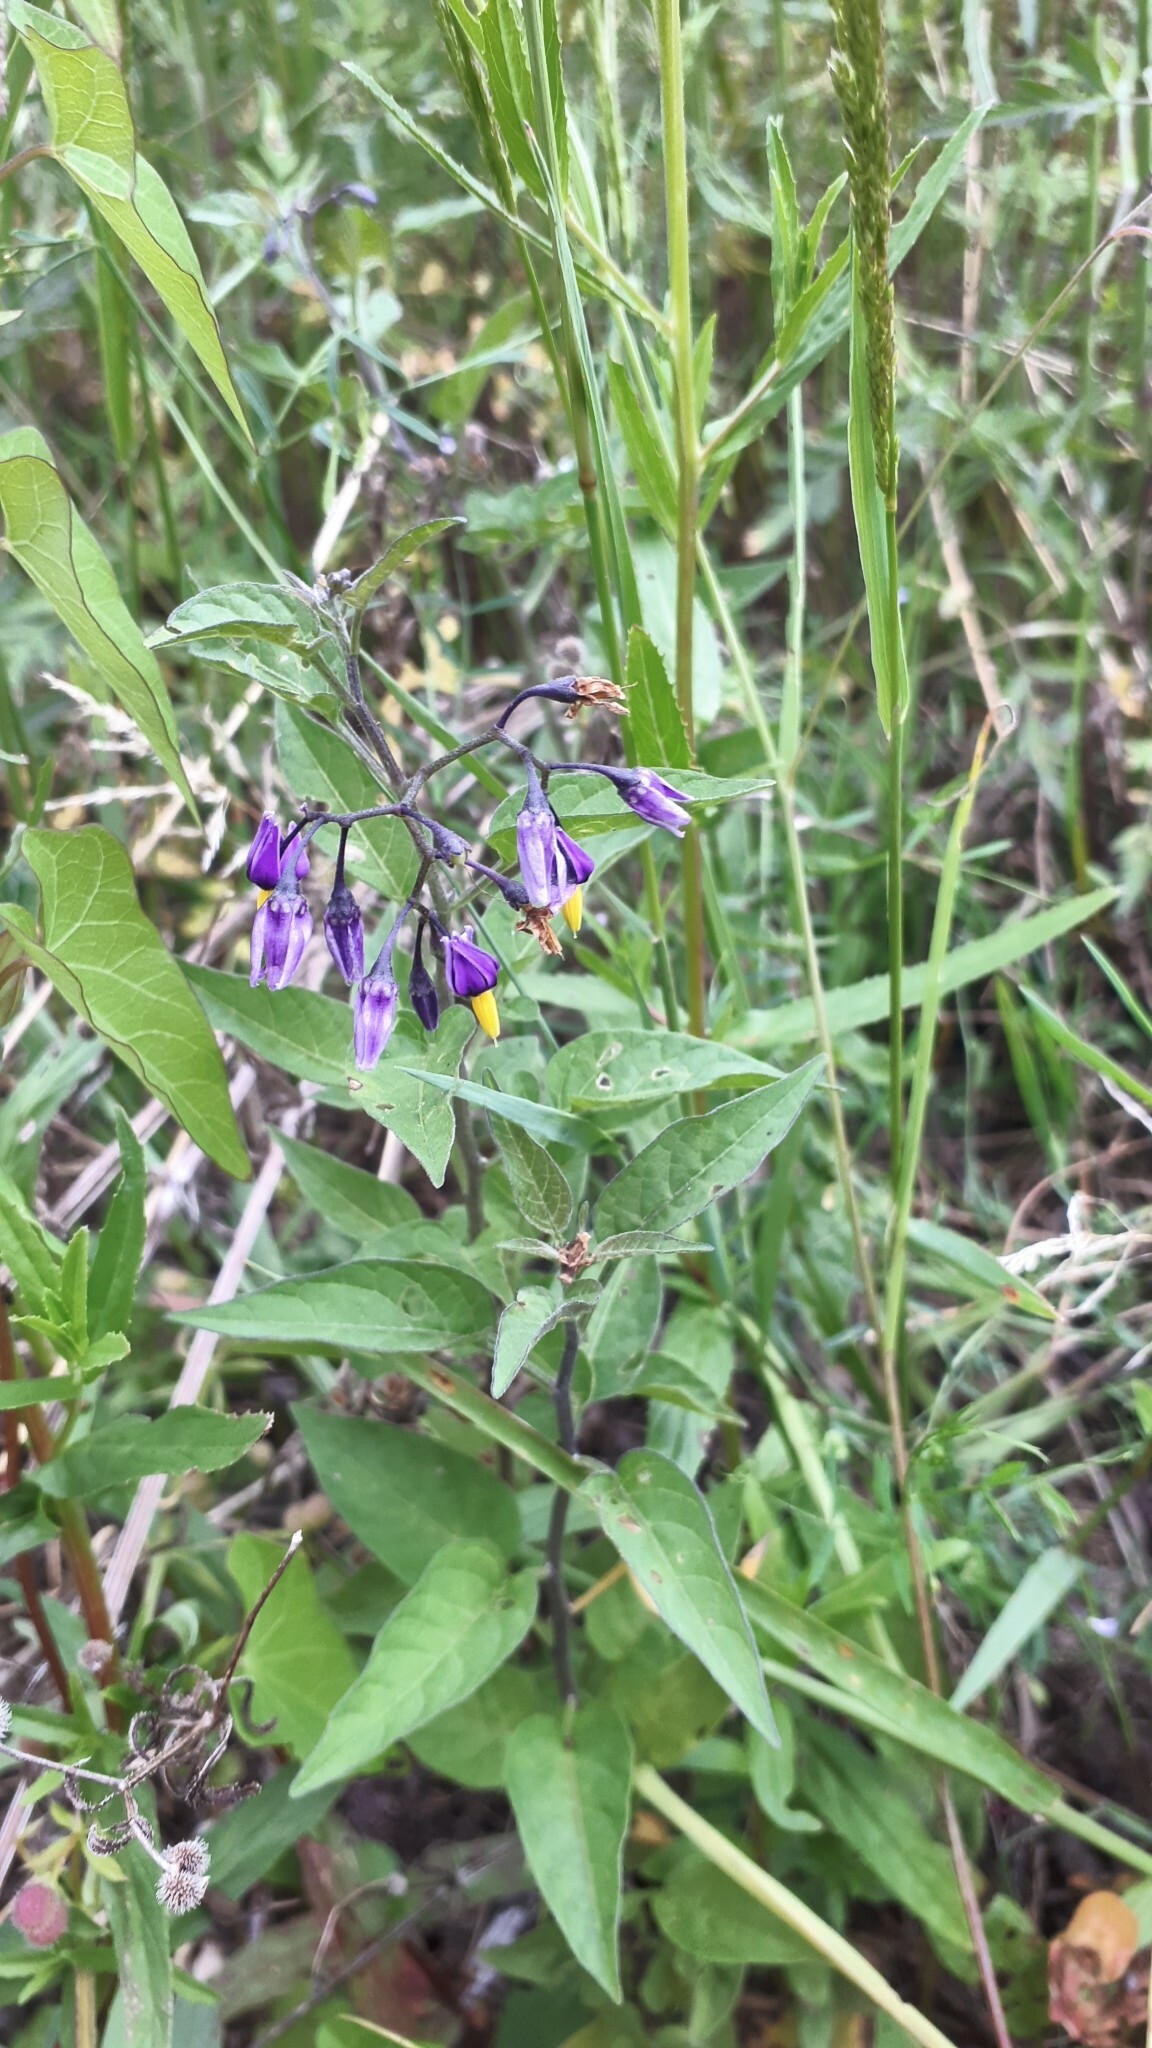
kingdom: Plantae
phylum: Tracheophyta
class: Magnoliopsida
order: Solanales
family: Solanaceae
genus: Solanum
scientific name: Solanum dulcamara
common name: Climbing nightshade
